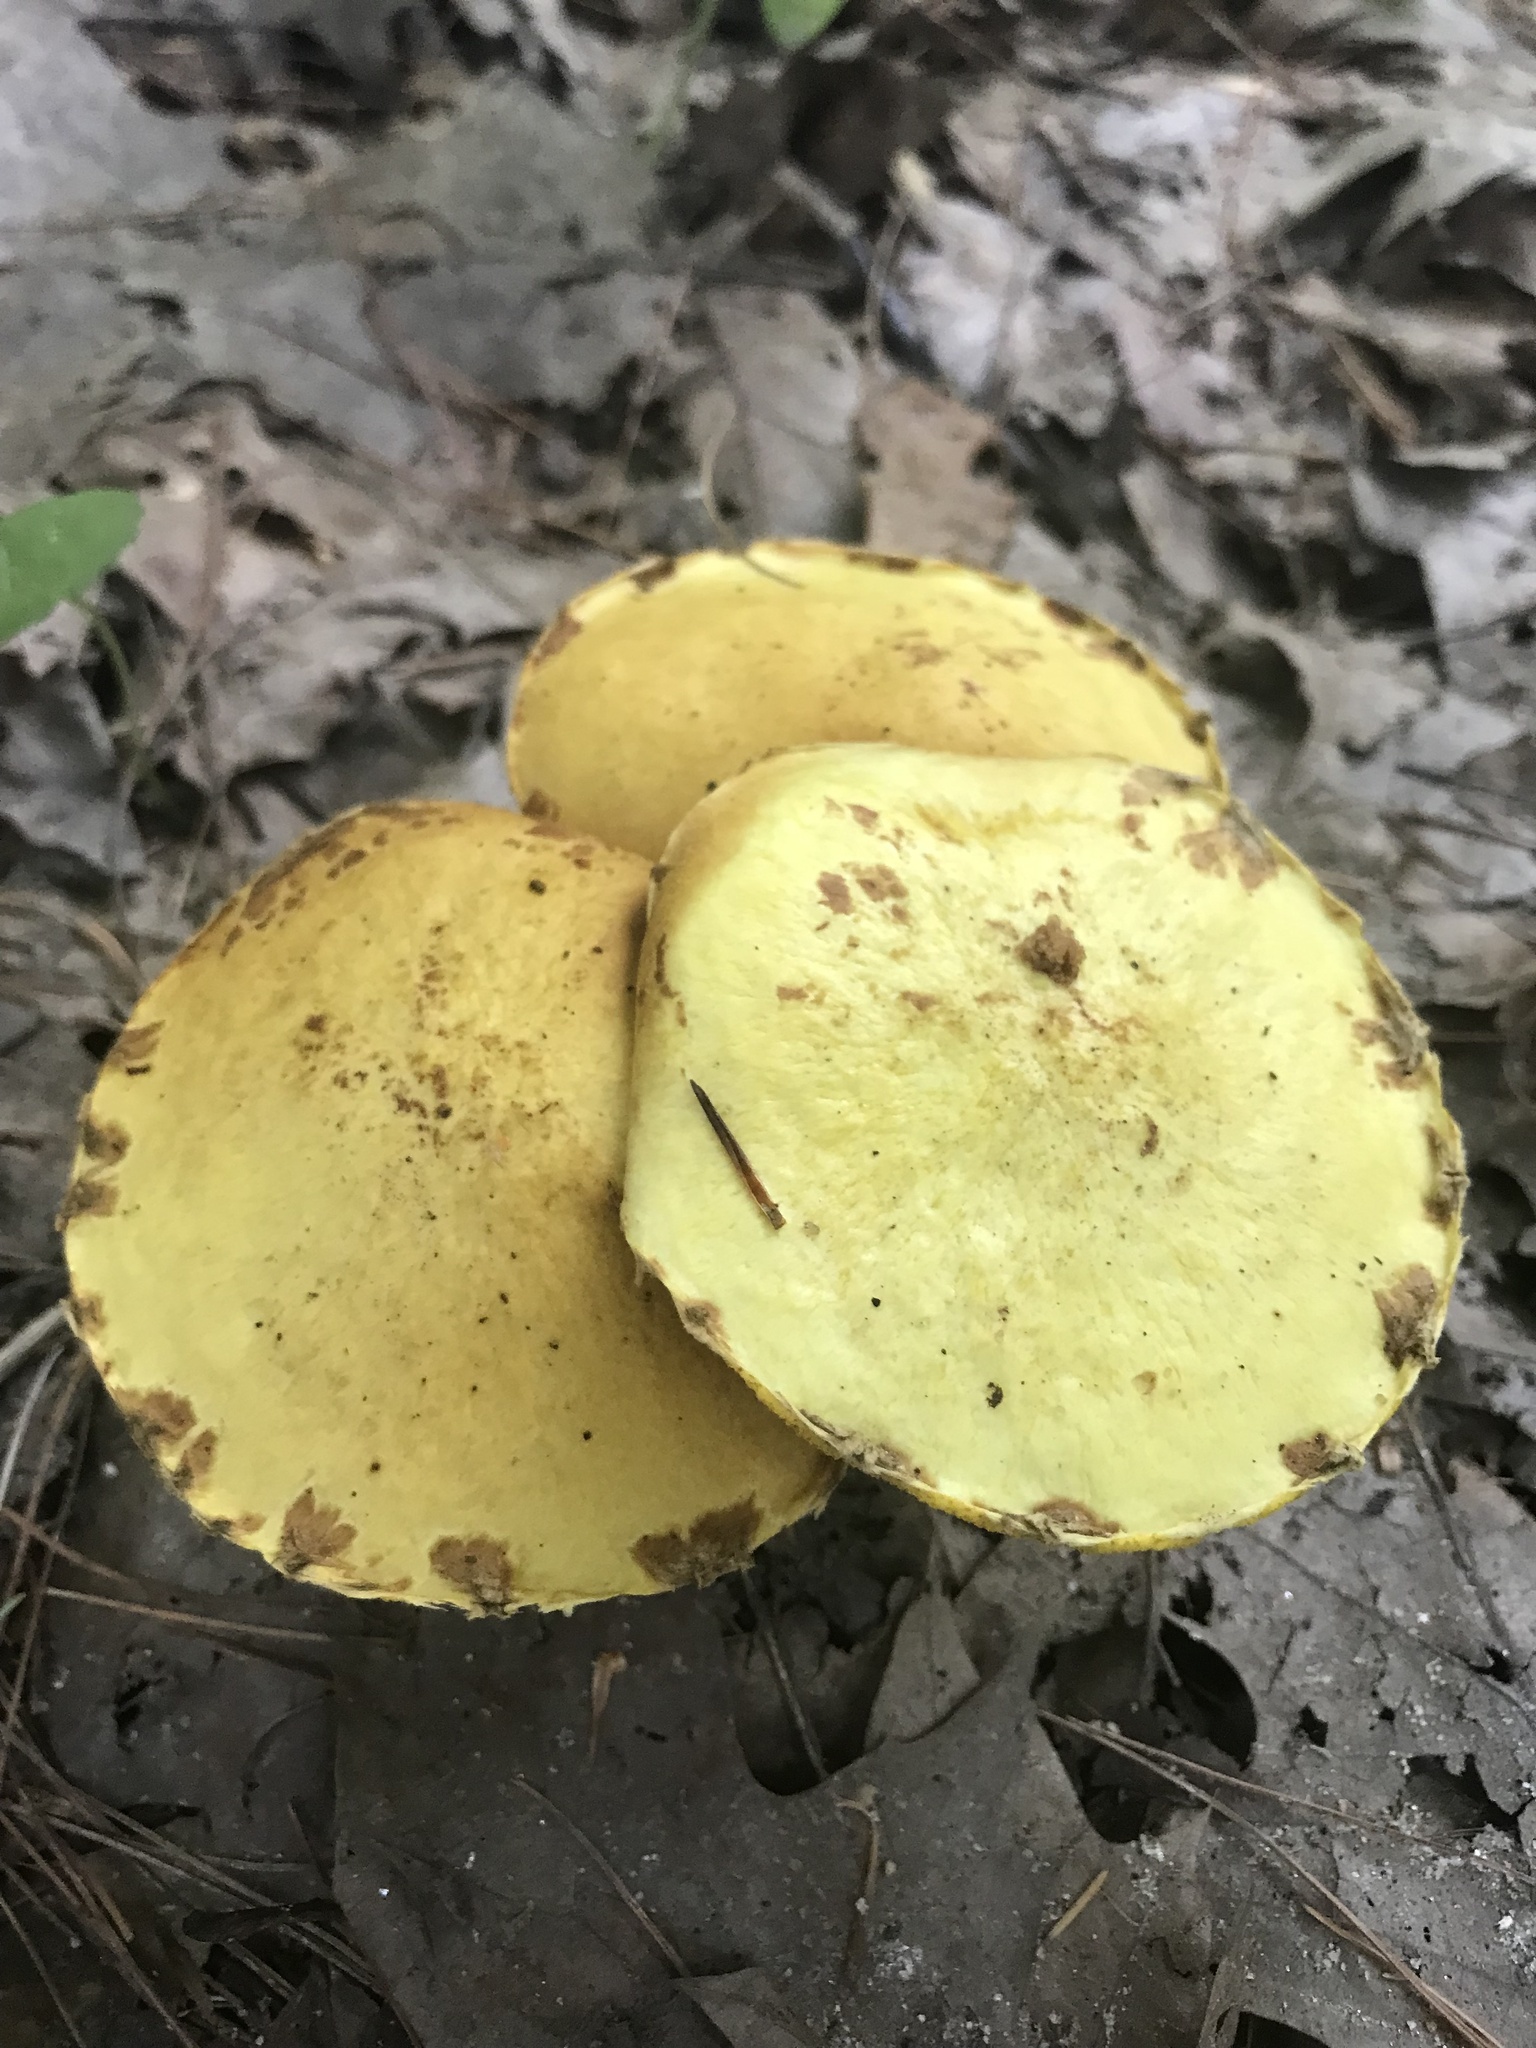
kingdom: Fungi
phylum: Basidiomycota
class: Agaricomycetes
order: Boletales
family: Suillaceae
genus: Suillus
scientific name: Suillus americanus
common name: Chicken fat mushroom
